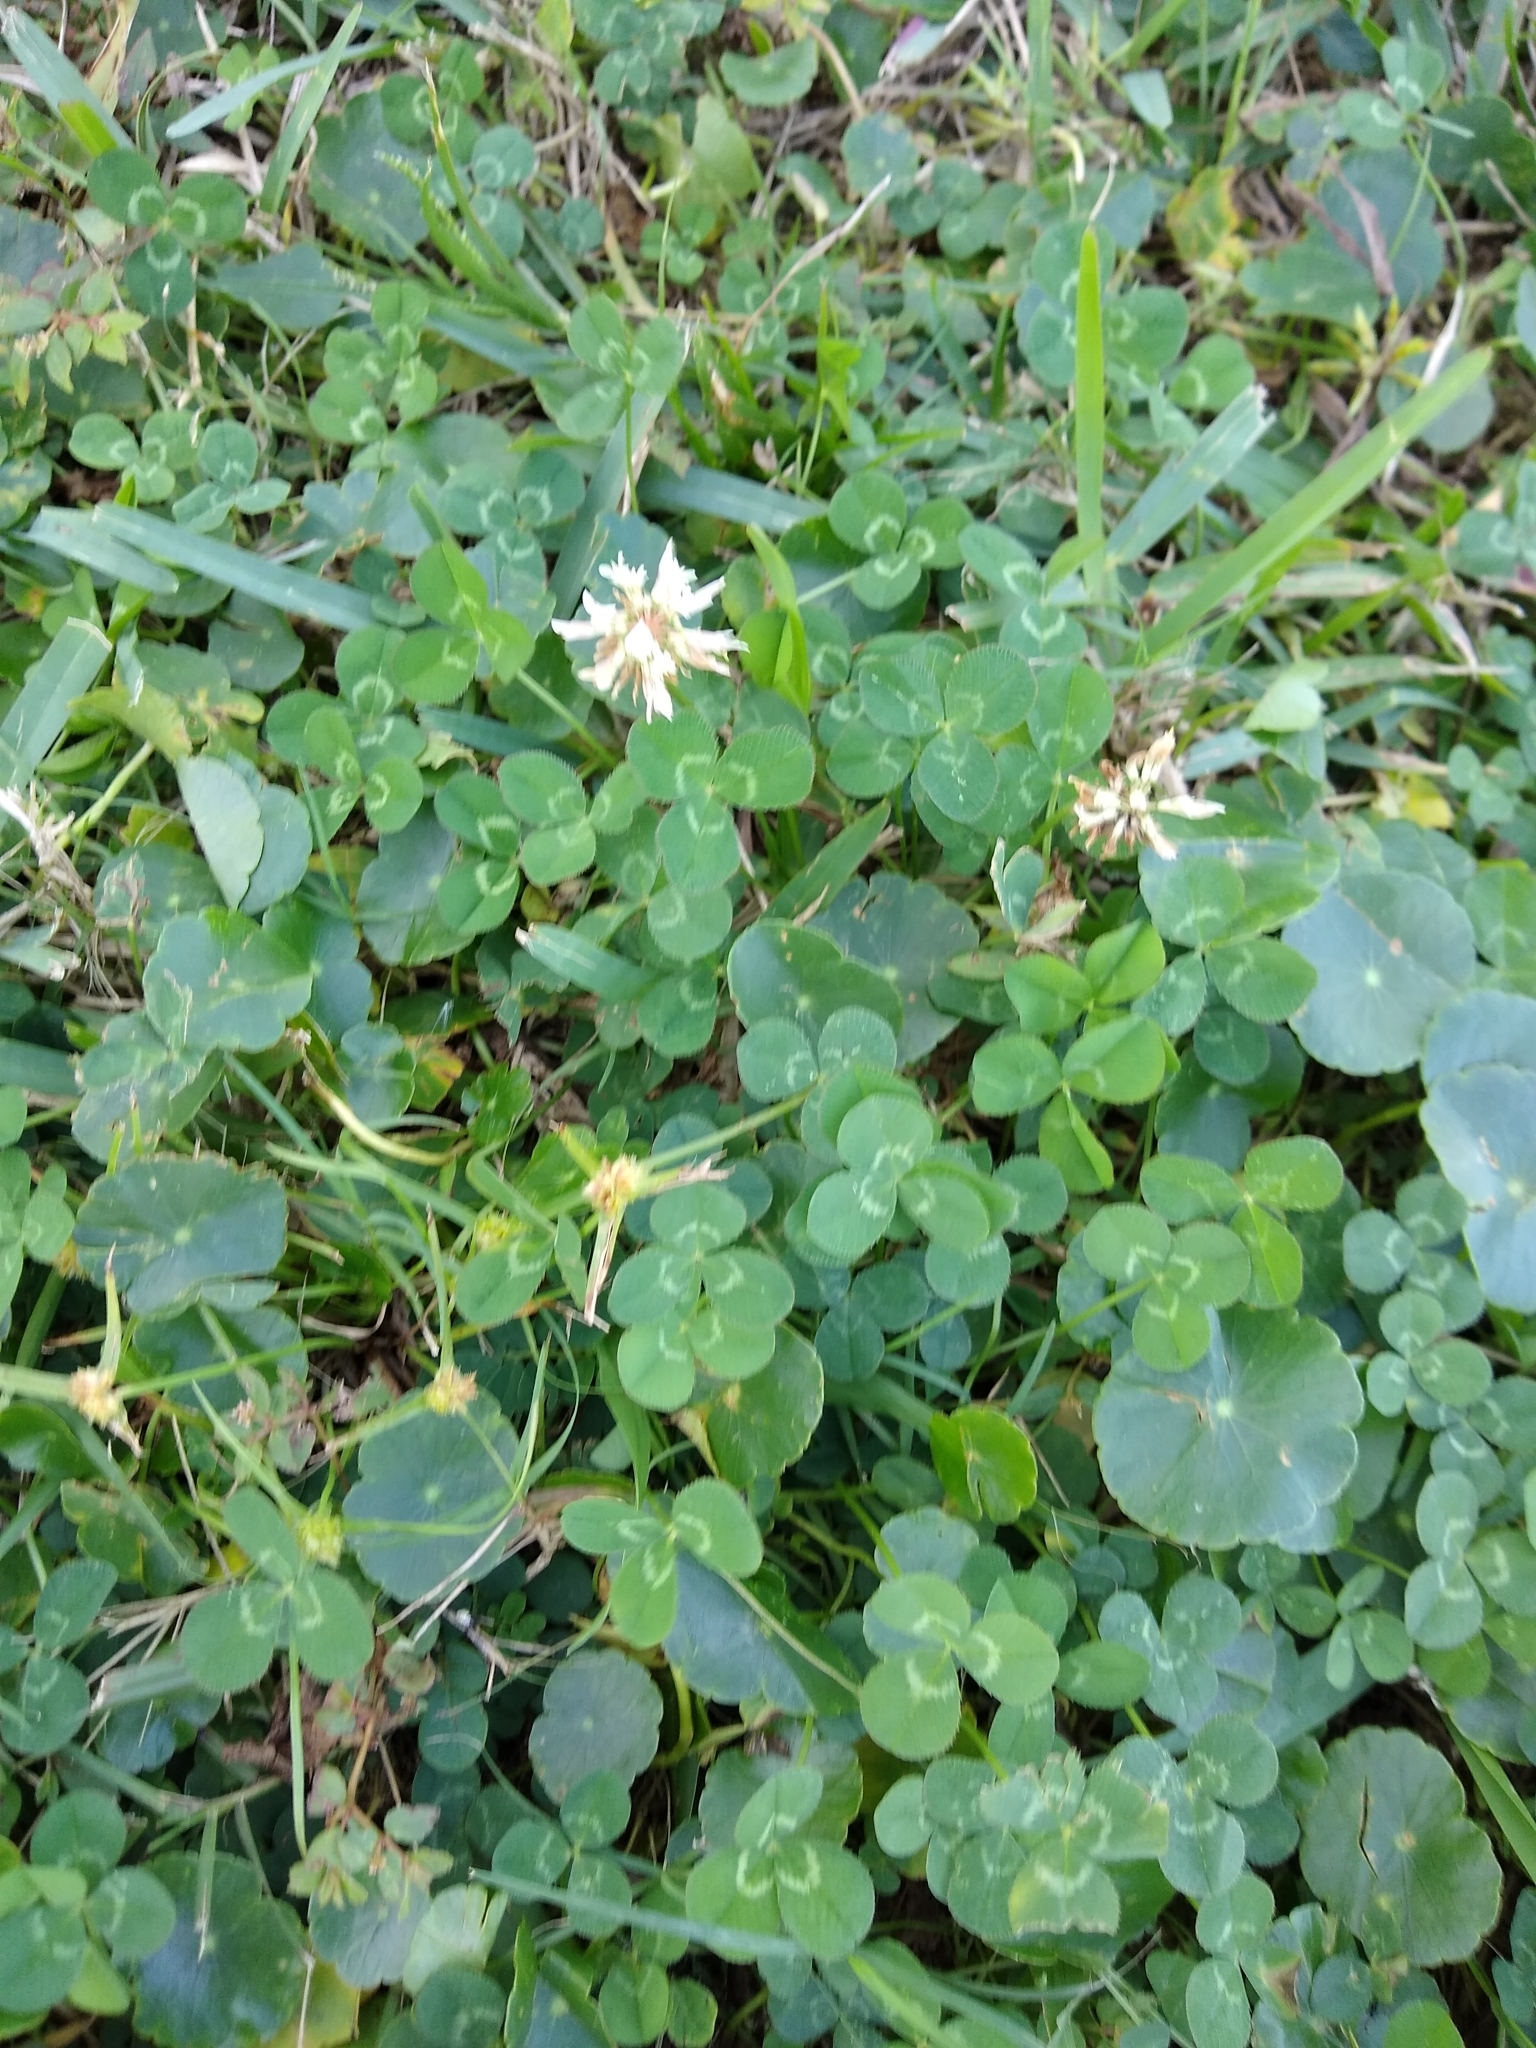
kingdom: Plantae
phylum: Tracheophyta
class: Magnoliopsida
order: Fabales
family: Fabaceae
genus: Trifolium
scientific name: Trifolium repens
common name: White clover
